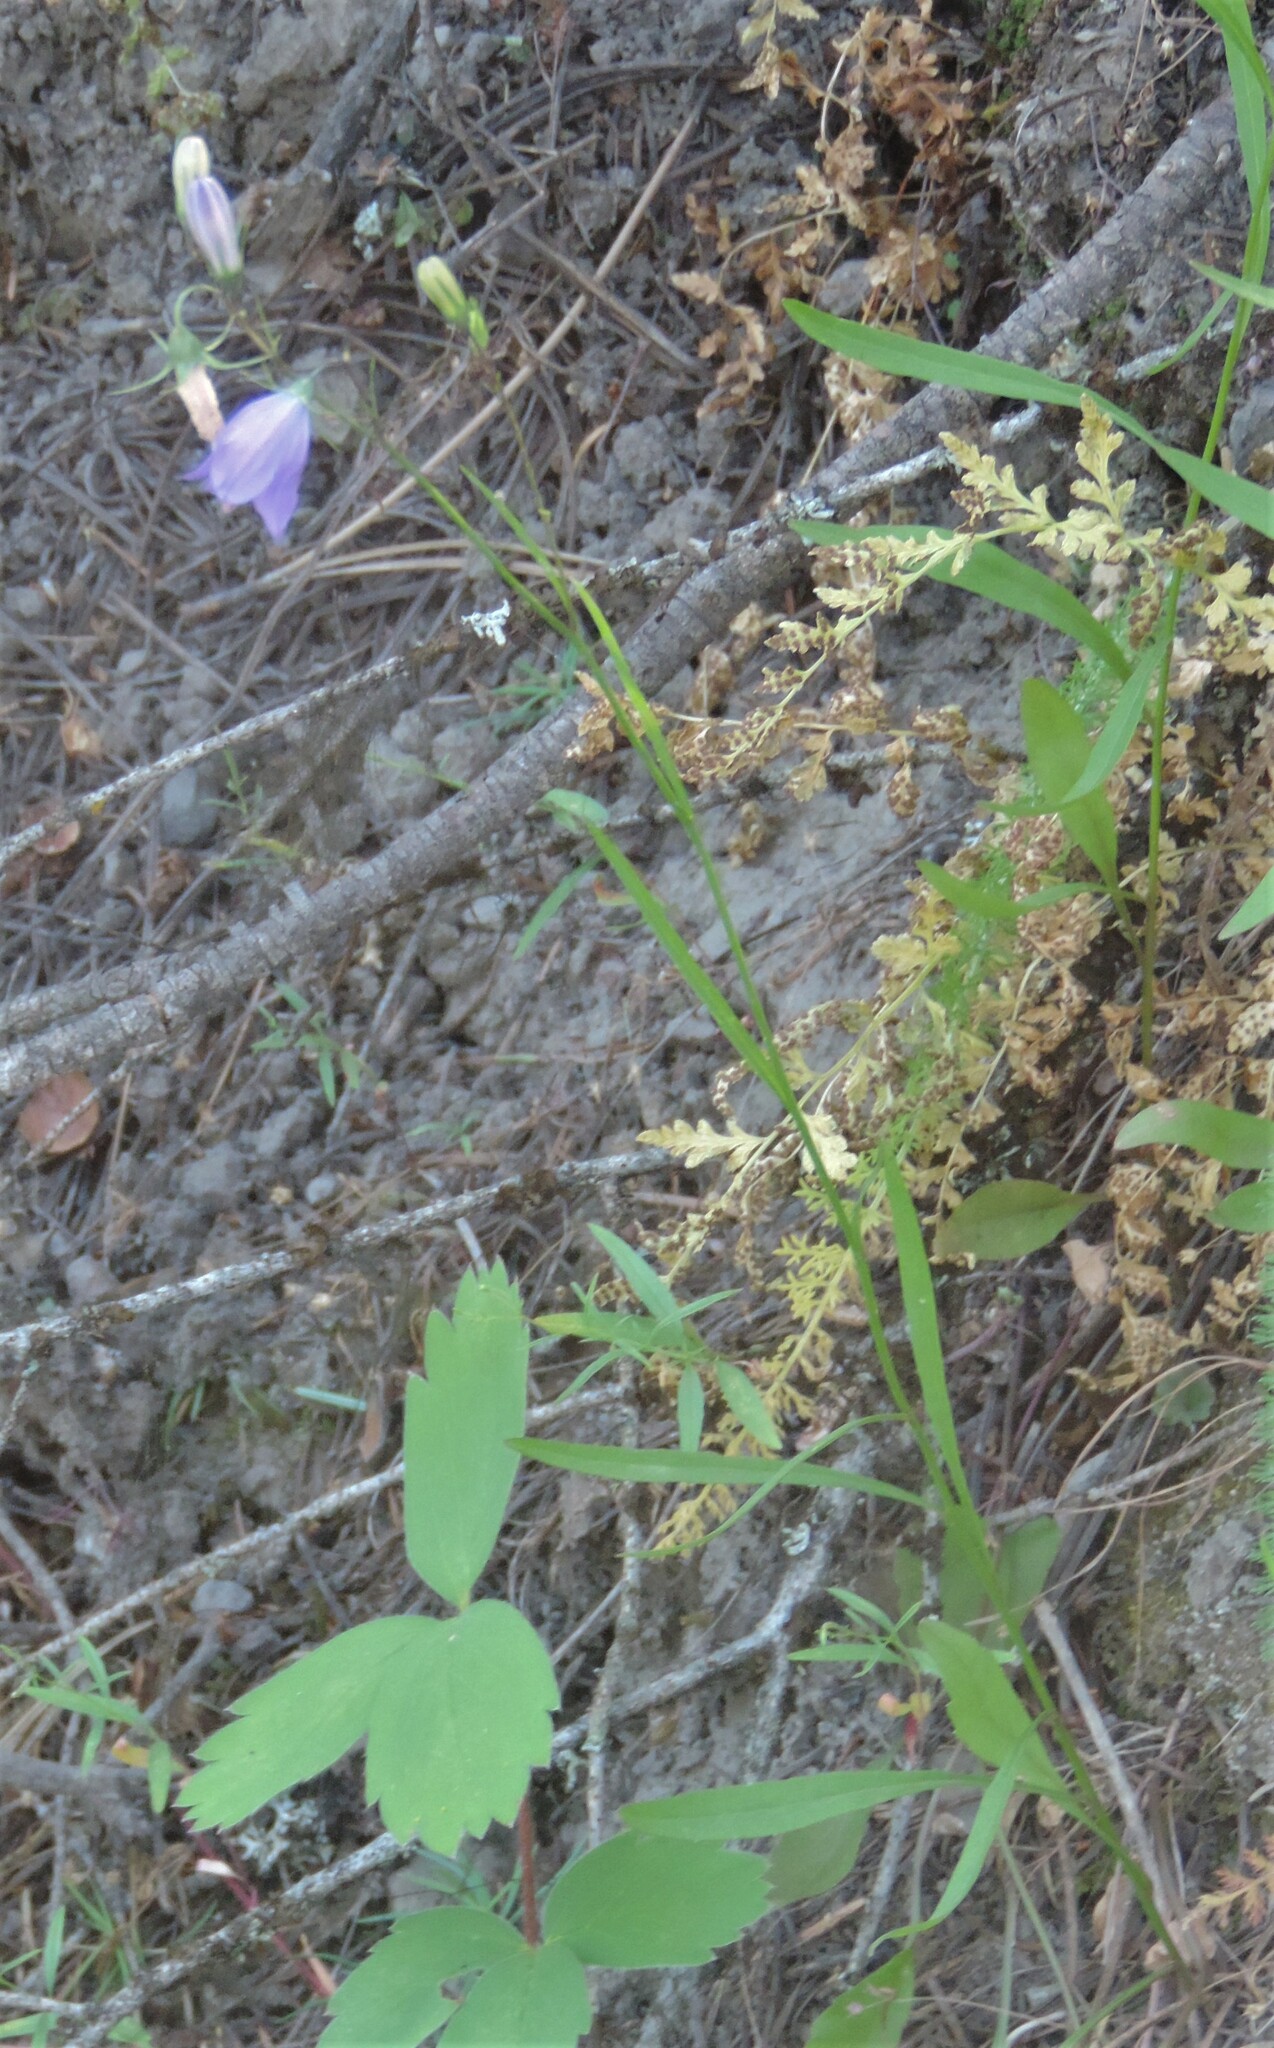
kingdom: Plantae
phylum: Tracheophyta
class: Magnoliopsida
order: Asterales
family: Campanulaceae
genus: Campanula
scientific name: Campanula alaskana
